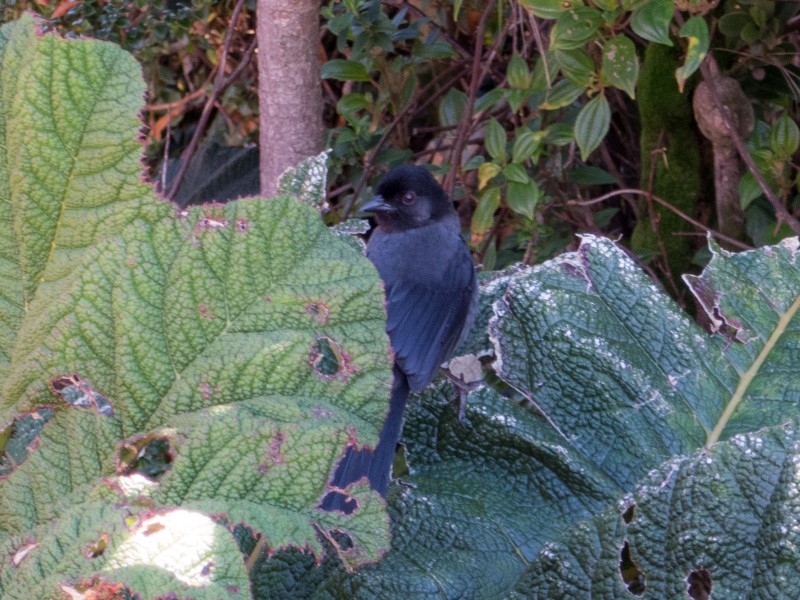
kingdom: Animalia
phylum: Chordata
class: Aves
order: Passeriformes
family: Passerellidae
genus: Atlapetes
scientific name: Atlapetes tibialis
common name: Yellow-thighed brushfinch
